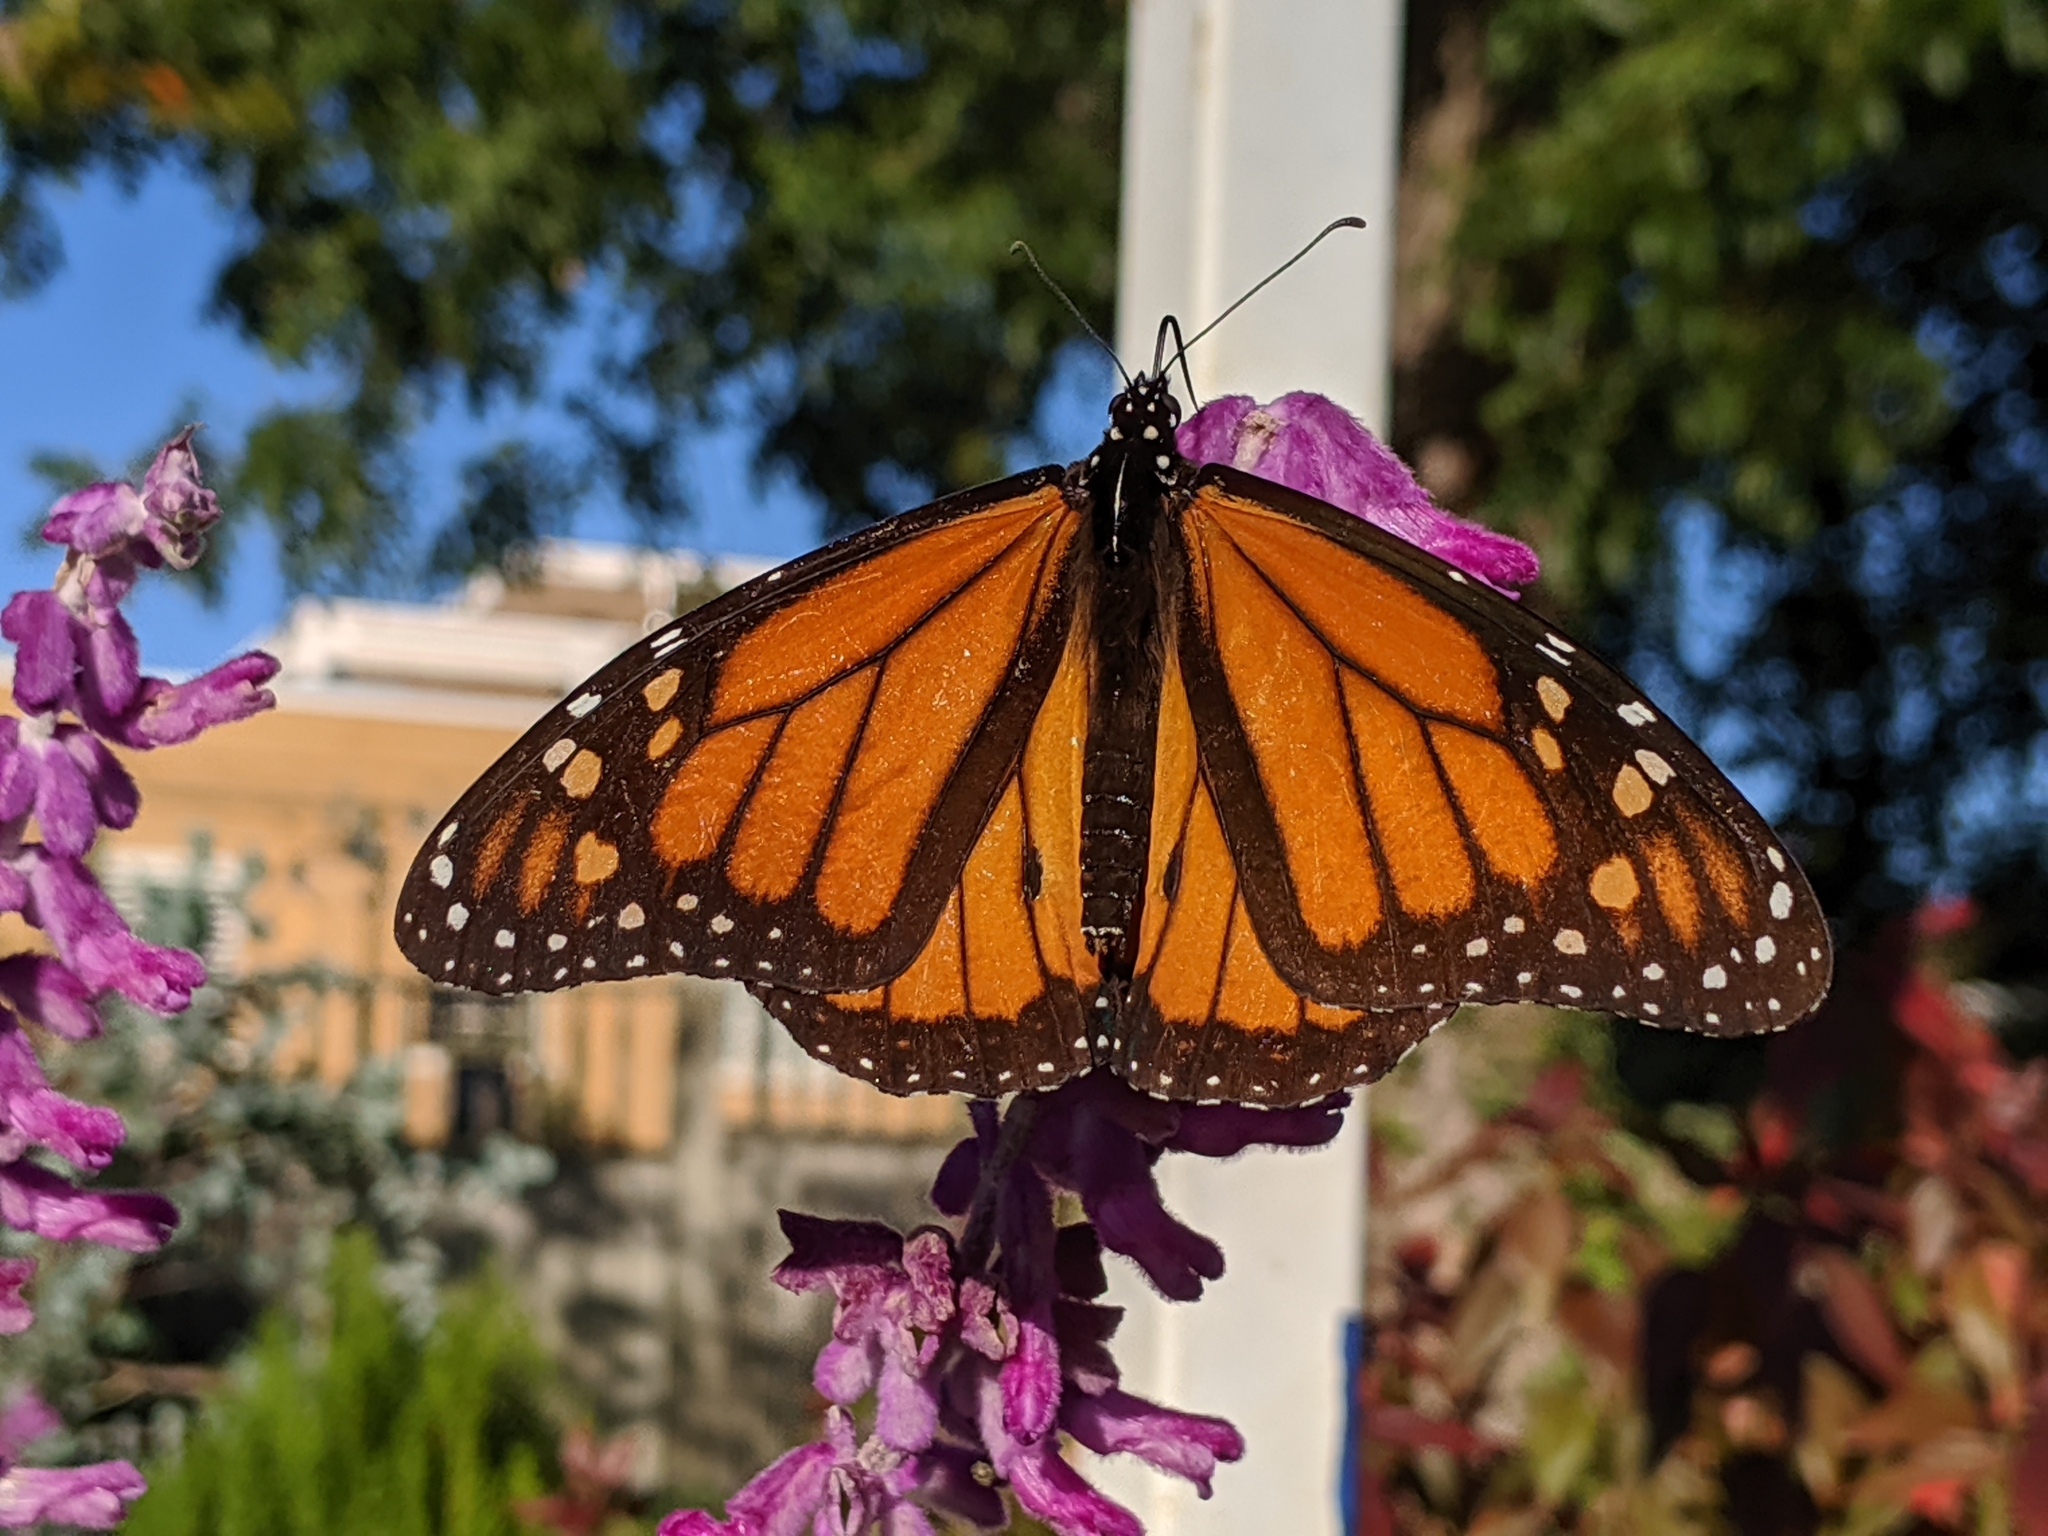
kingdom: Animalia
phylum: Arthropoda
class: Insecta
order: Lepidoptera
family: Nymphalidae
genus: Danaus
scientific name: Danaus plexippus
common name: Monarch
